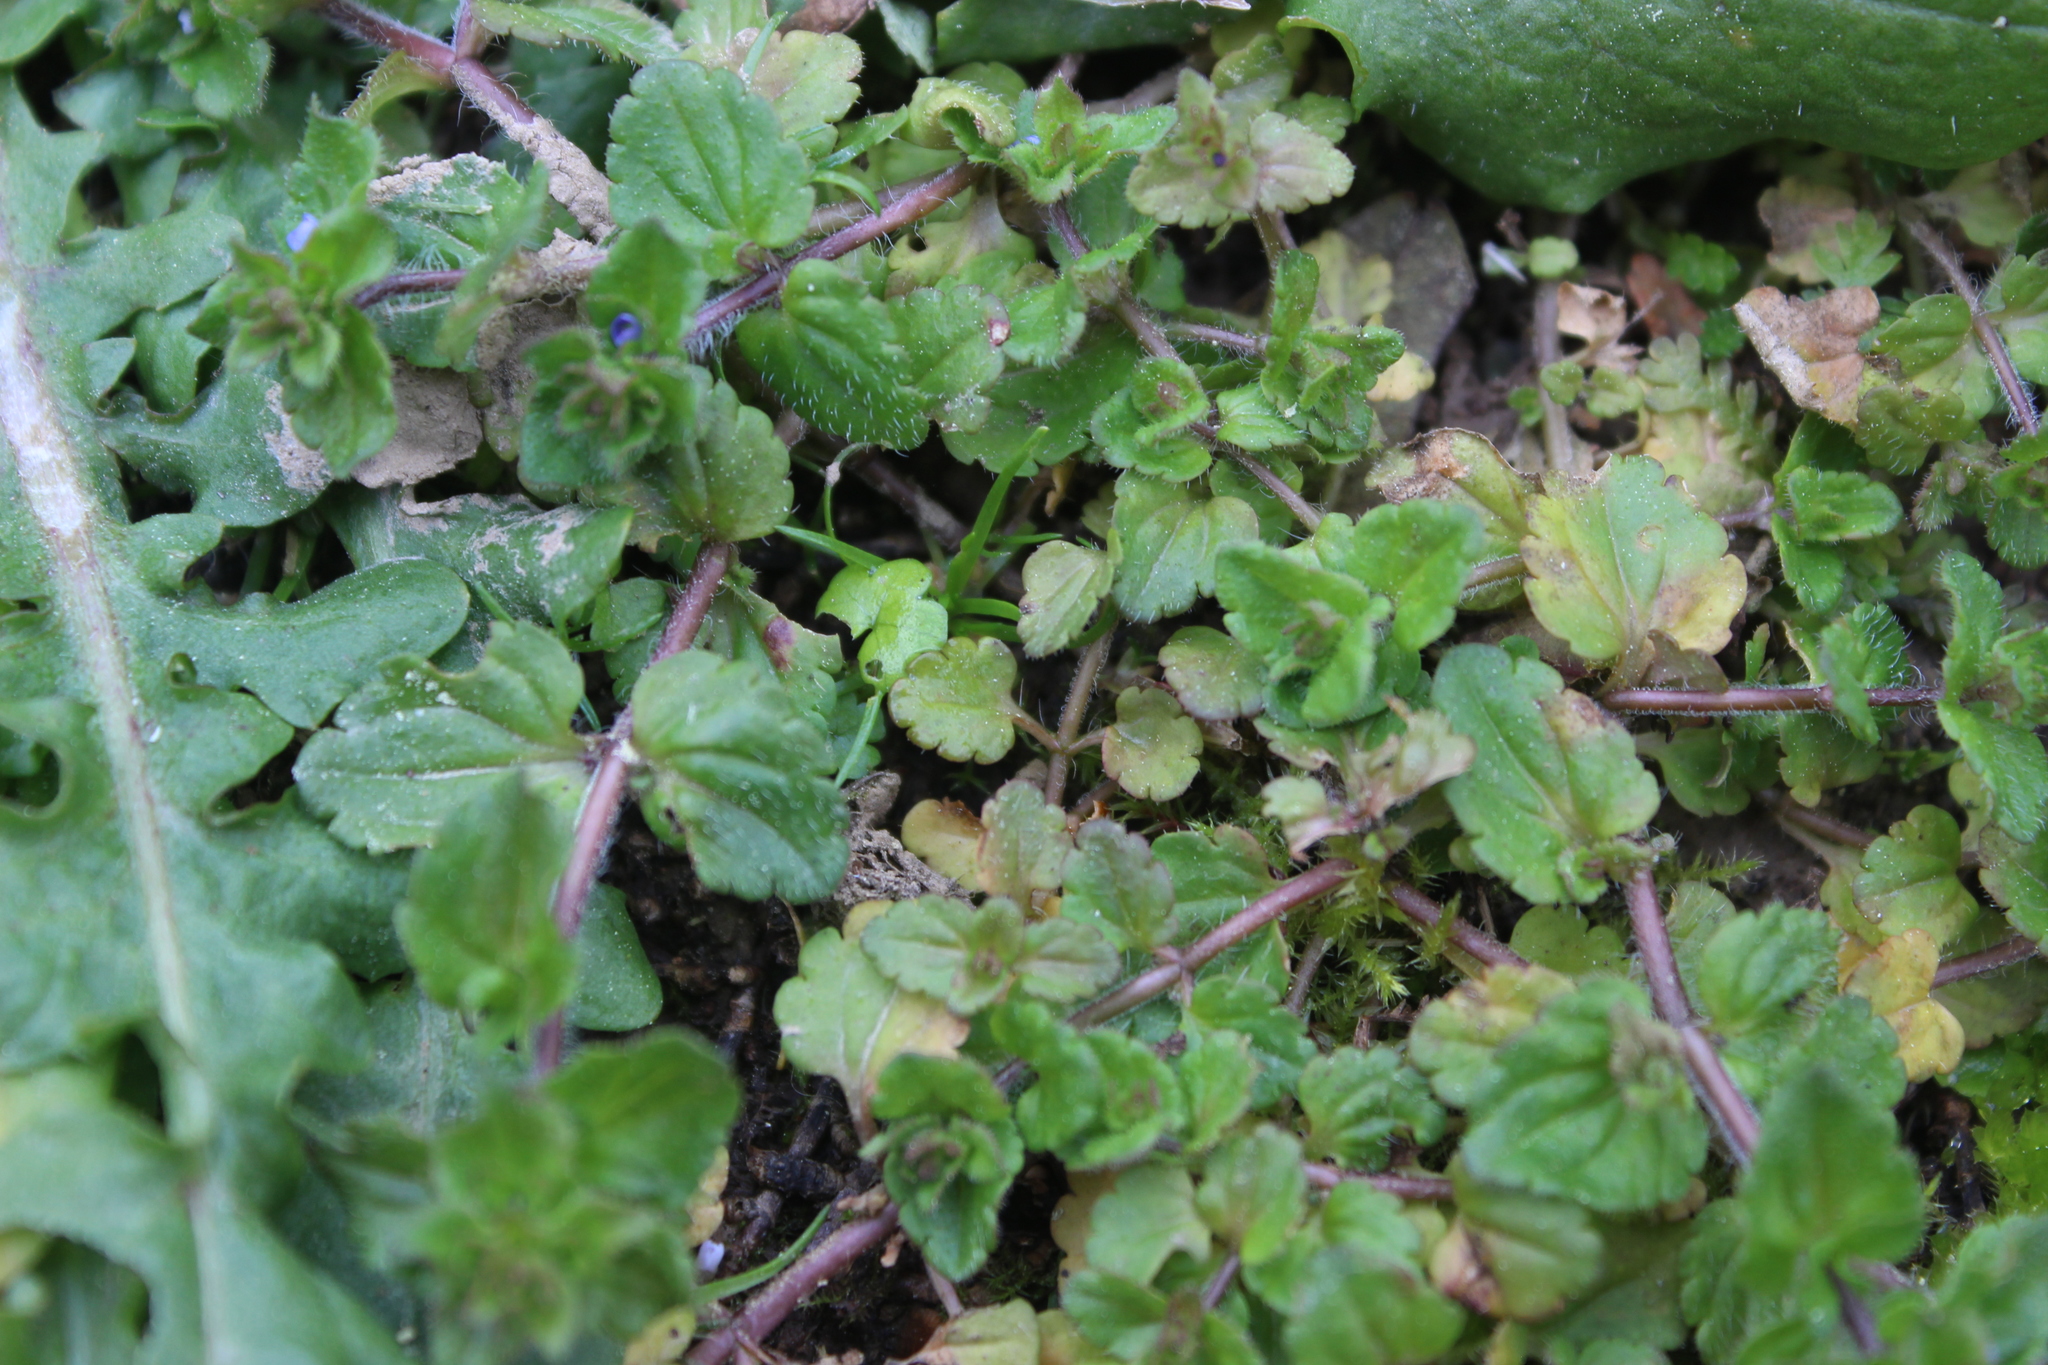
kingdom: Plantae
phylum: Tracheophyta
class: Magnoliopsida
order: Lamiales
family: Plantaginaceae
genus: Veronica
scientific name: Veronica arvensis
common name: Corn speedwell
